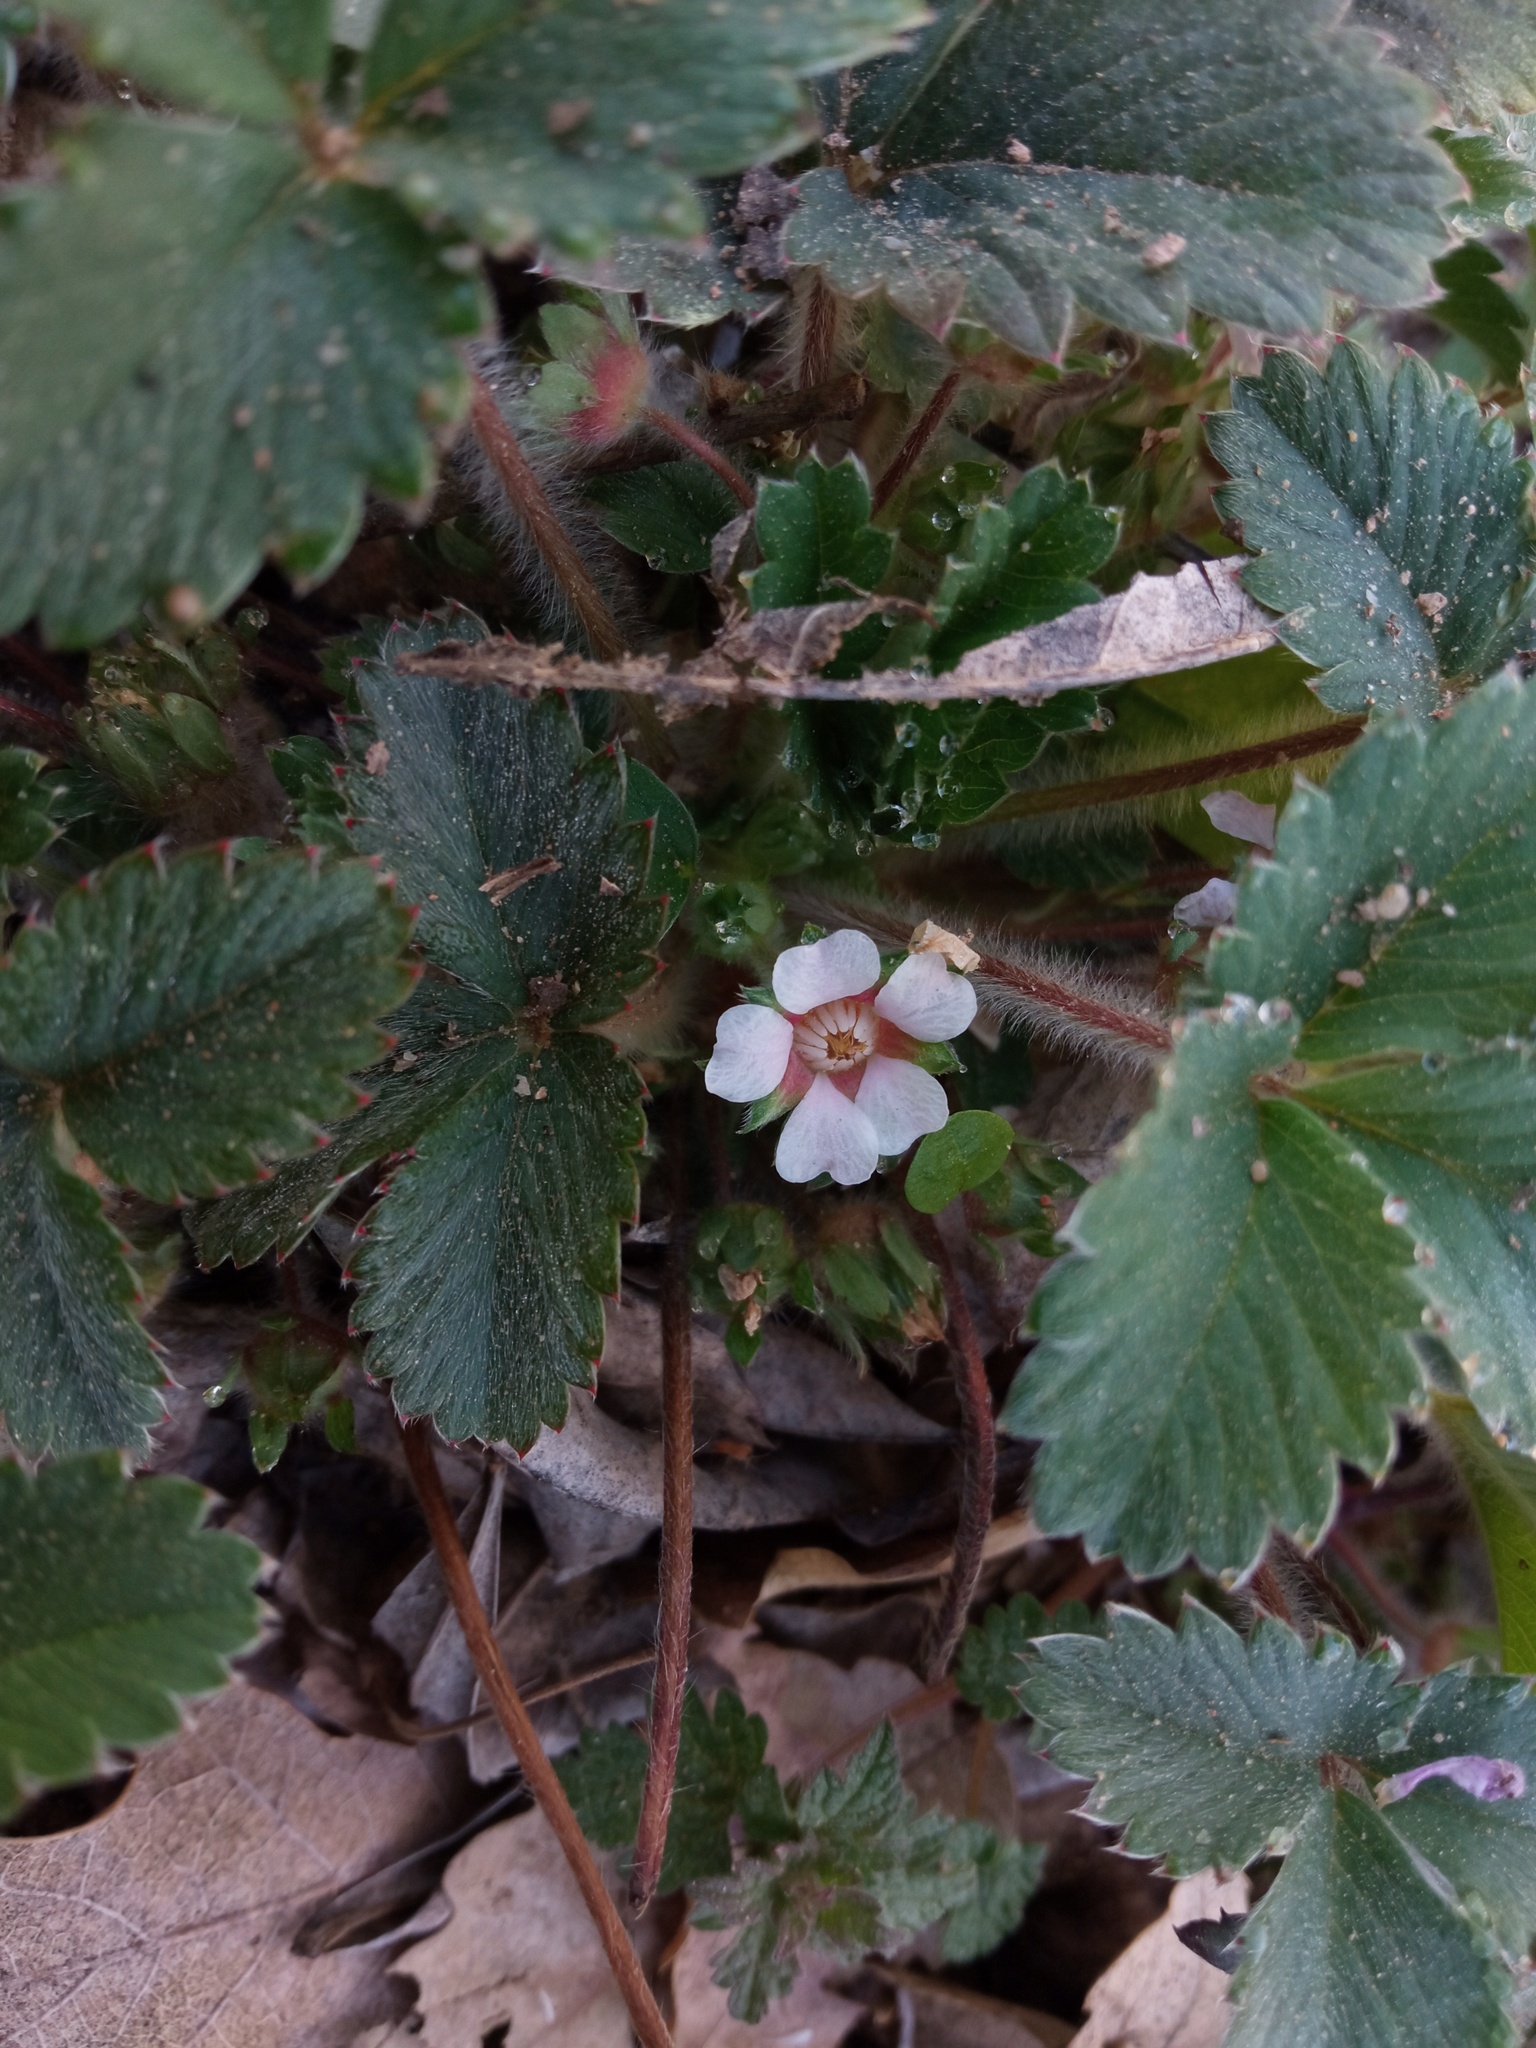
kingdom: Plantae
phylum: Tracheophyta
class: Magnoliopsida
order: Rosales
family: Rosaceae
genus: Potentilla
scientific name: Potentilla micrantha
